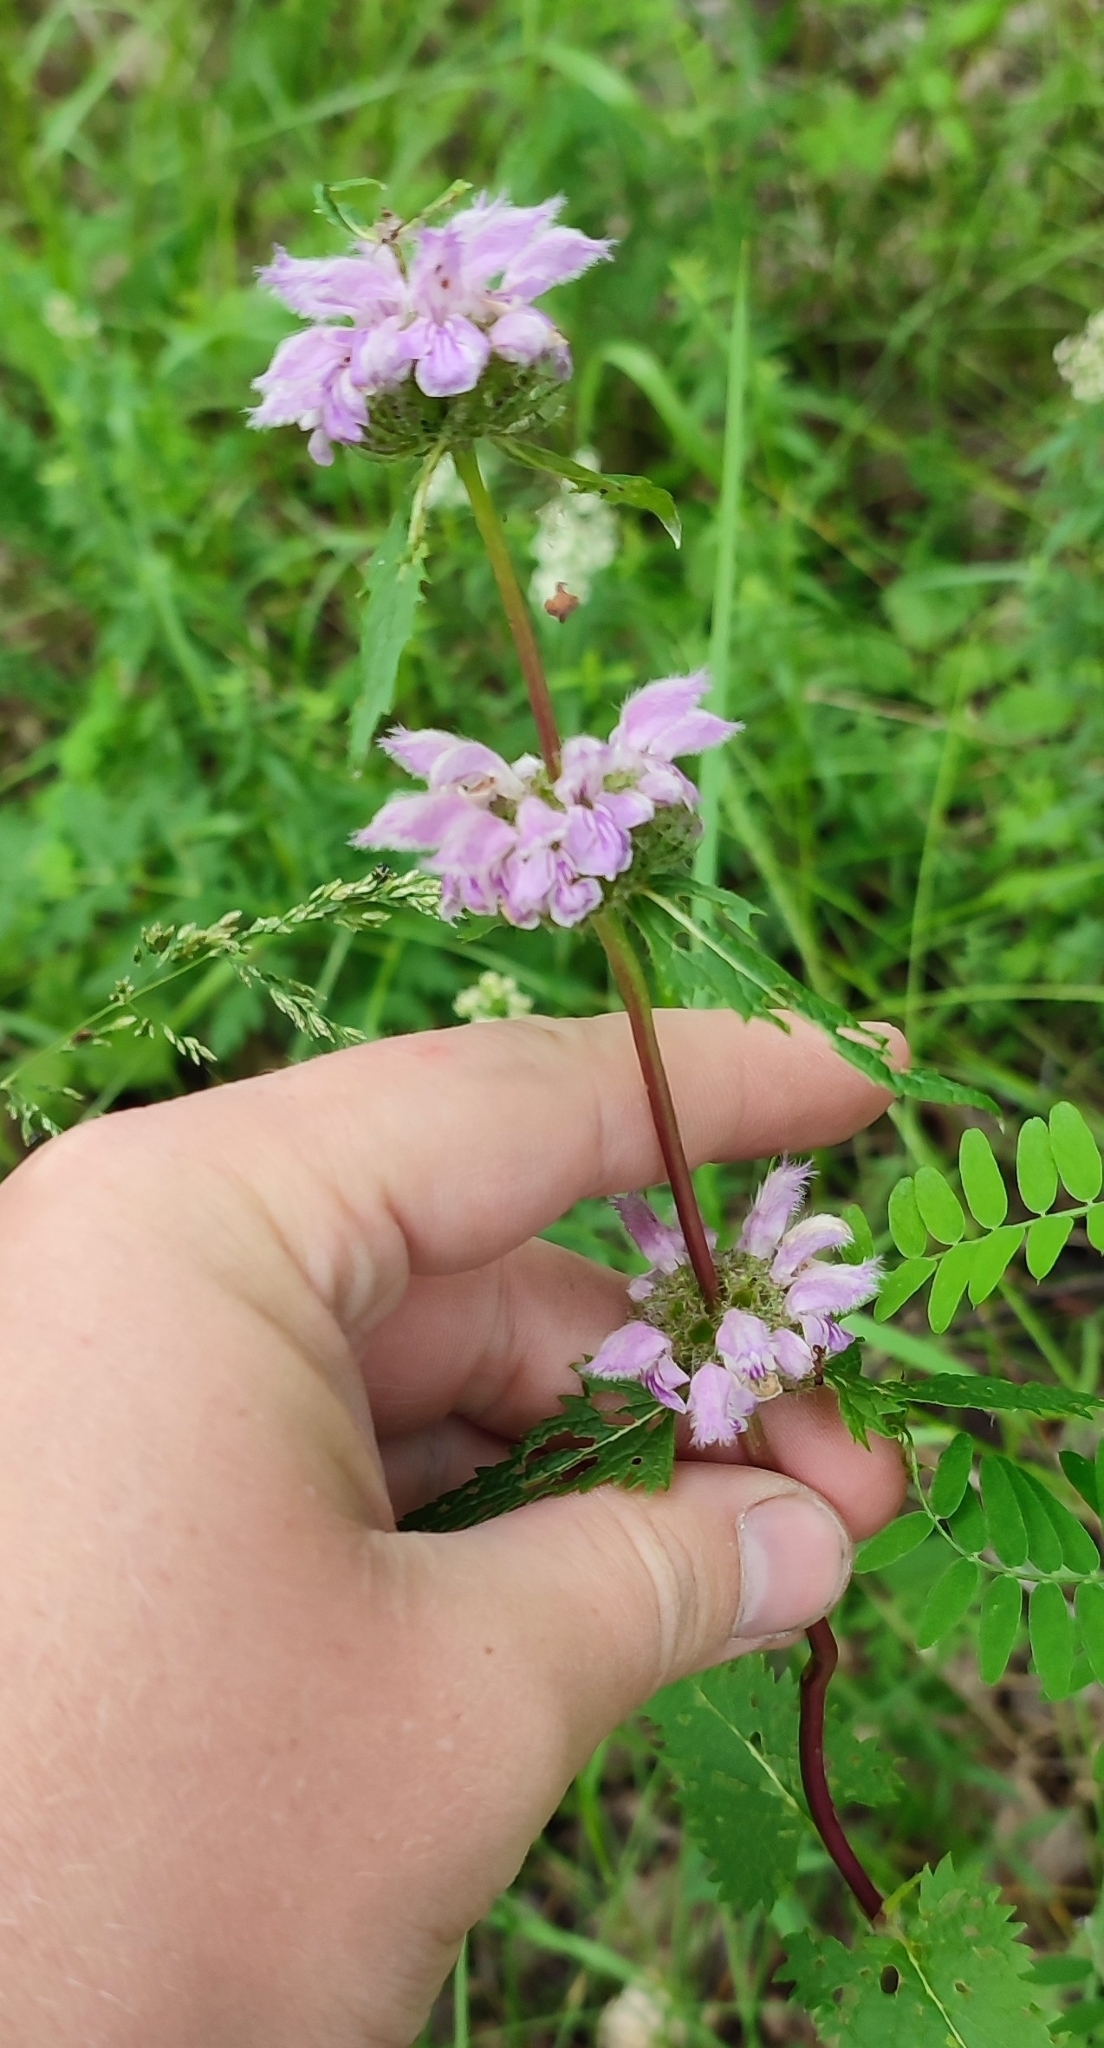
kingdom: Plantae
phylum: Tracheophyta
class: Magnoliopsida
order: Lamiales
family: Lamiaceae
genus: Phlomoides
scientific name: Phlomoides tuberosa
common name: Tuberous jerusalem sage
